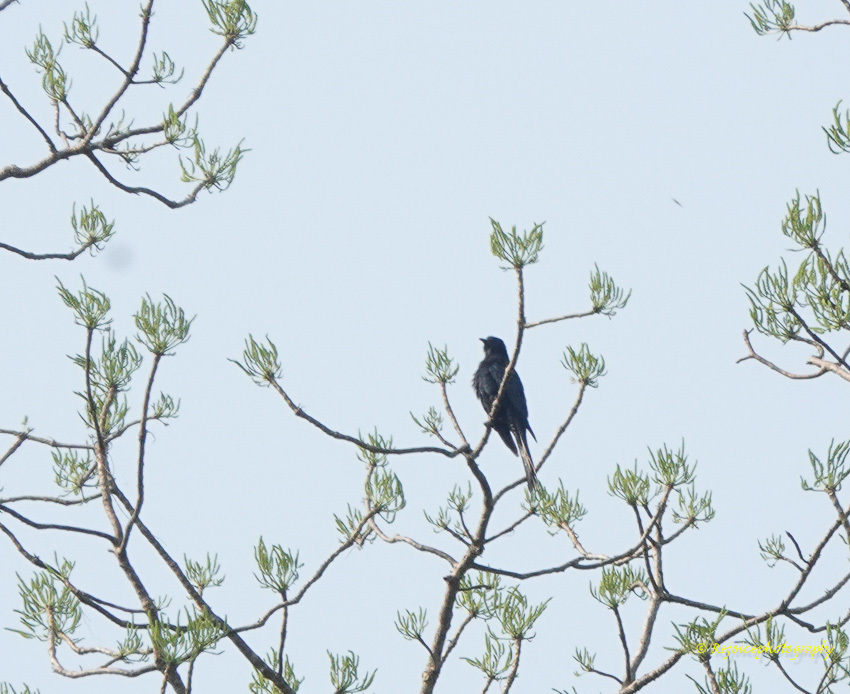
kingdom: Animalia
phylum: Chordata
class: Aves
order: Cuculiformes
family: Cuculidae
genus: Surniculus
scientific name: Surniculus lugubris
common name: Square-tailed drongo-cuckoo
